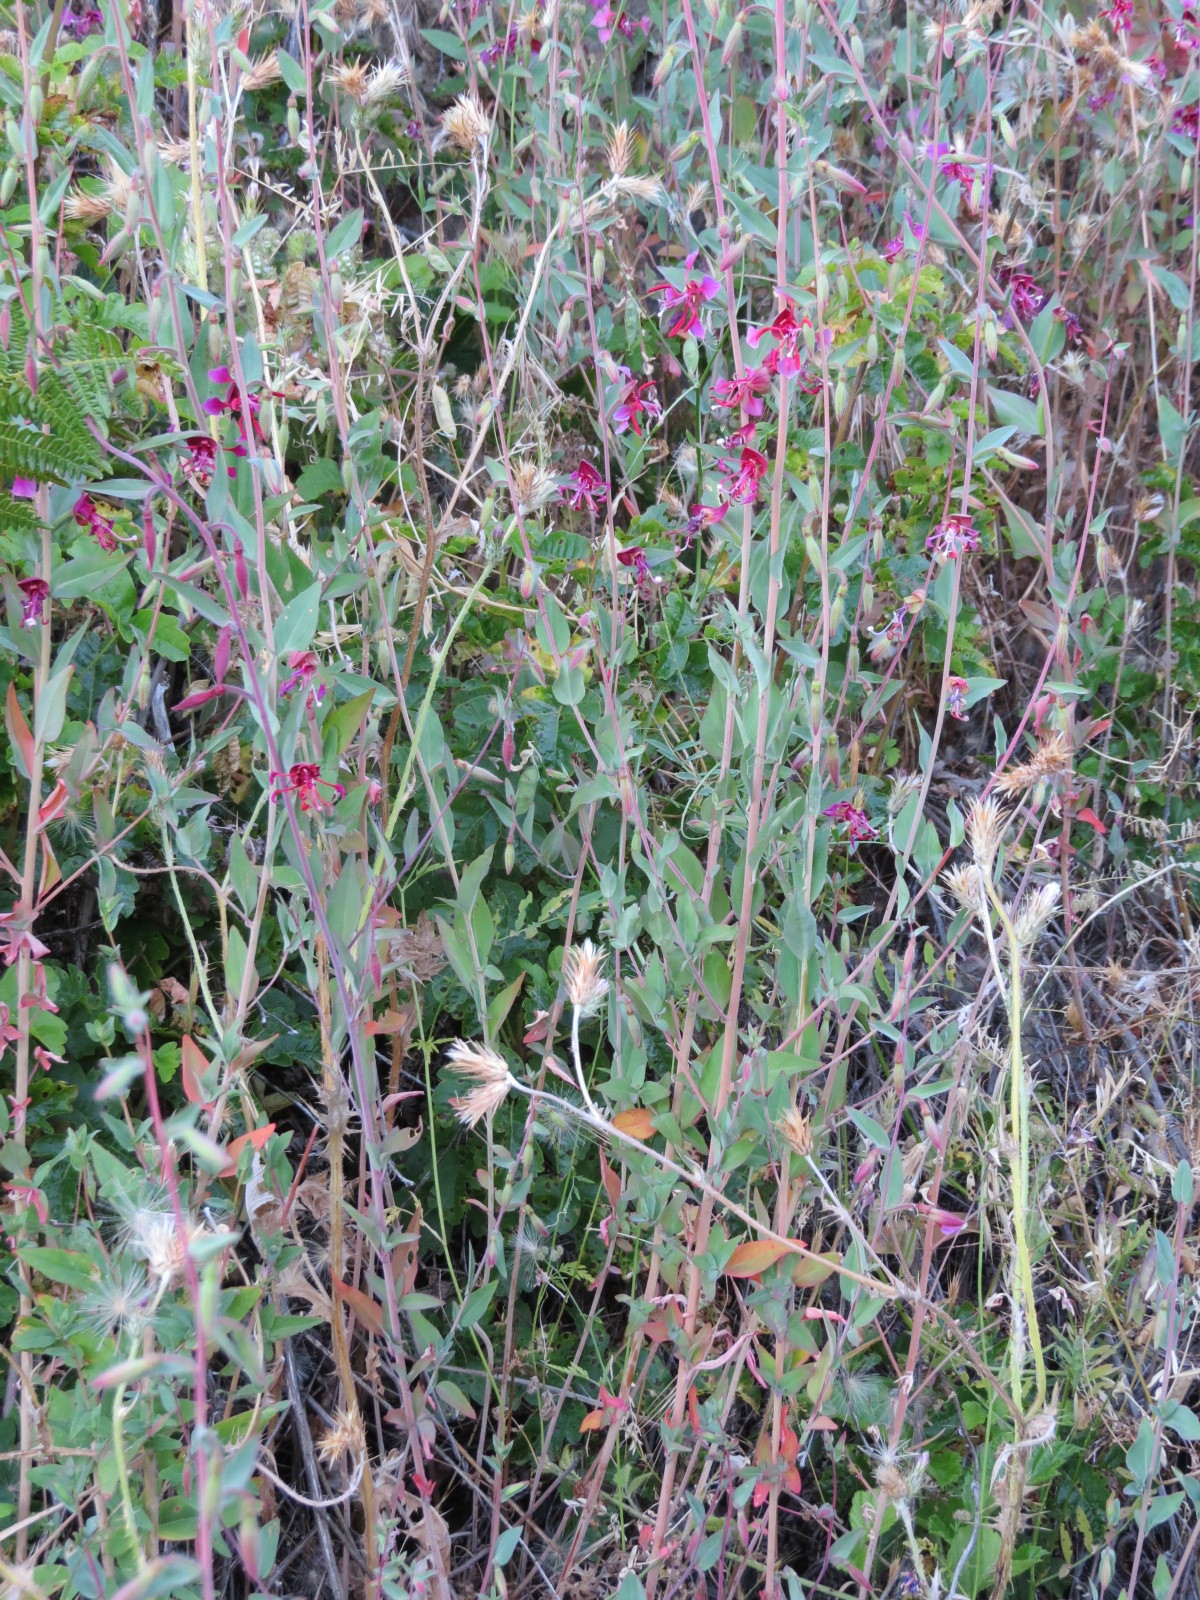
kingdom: Plantae
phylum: Tracheophyta
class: Magnoliopsida
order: Myrtales
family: Onagraceae
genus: Clarkia
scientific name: Clarkia unguiculata
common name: Clarkia
